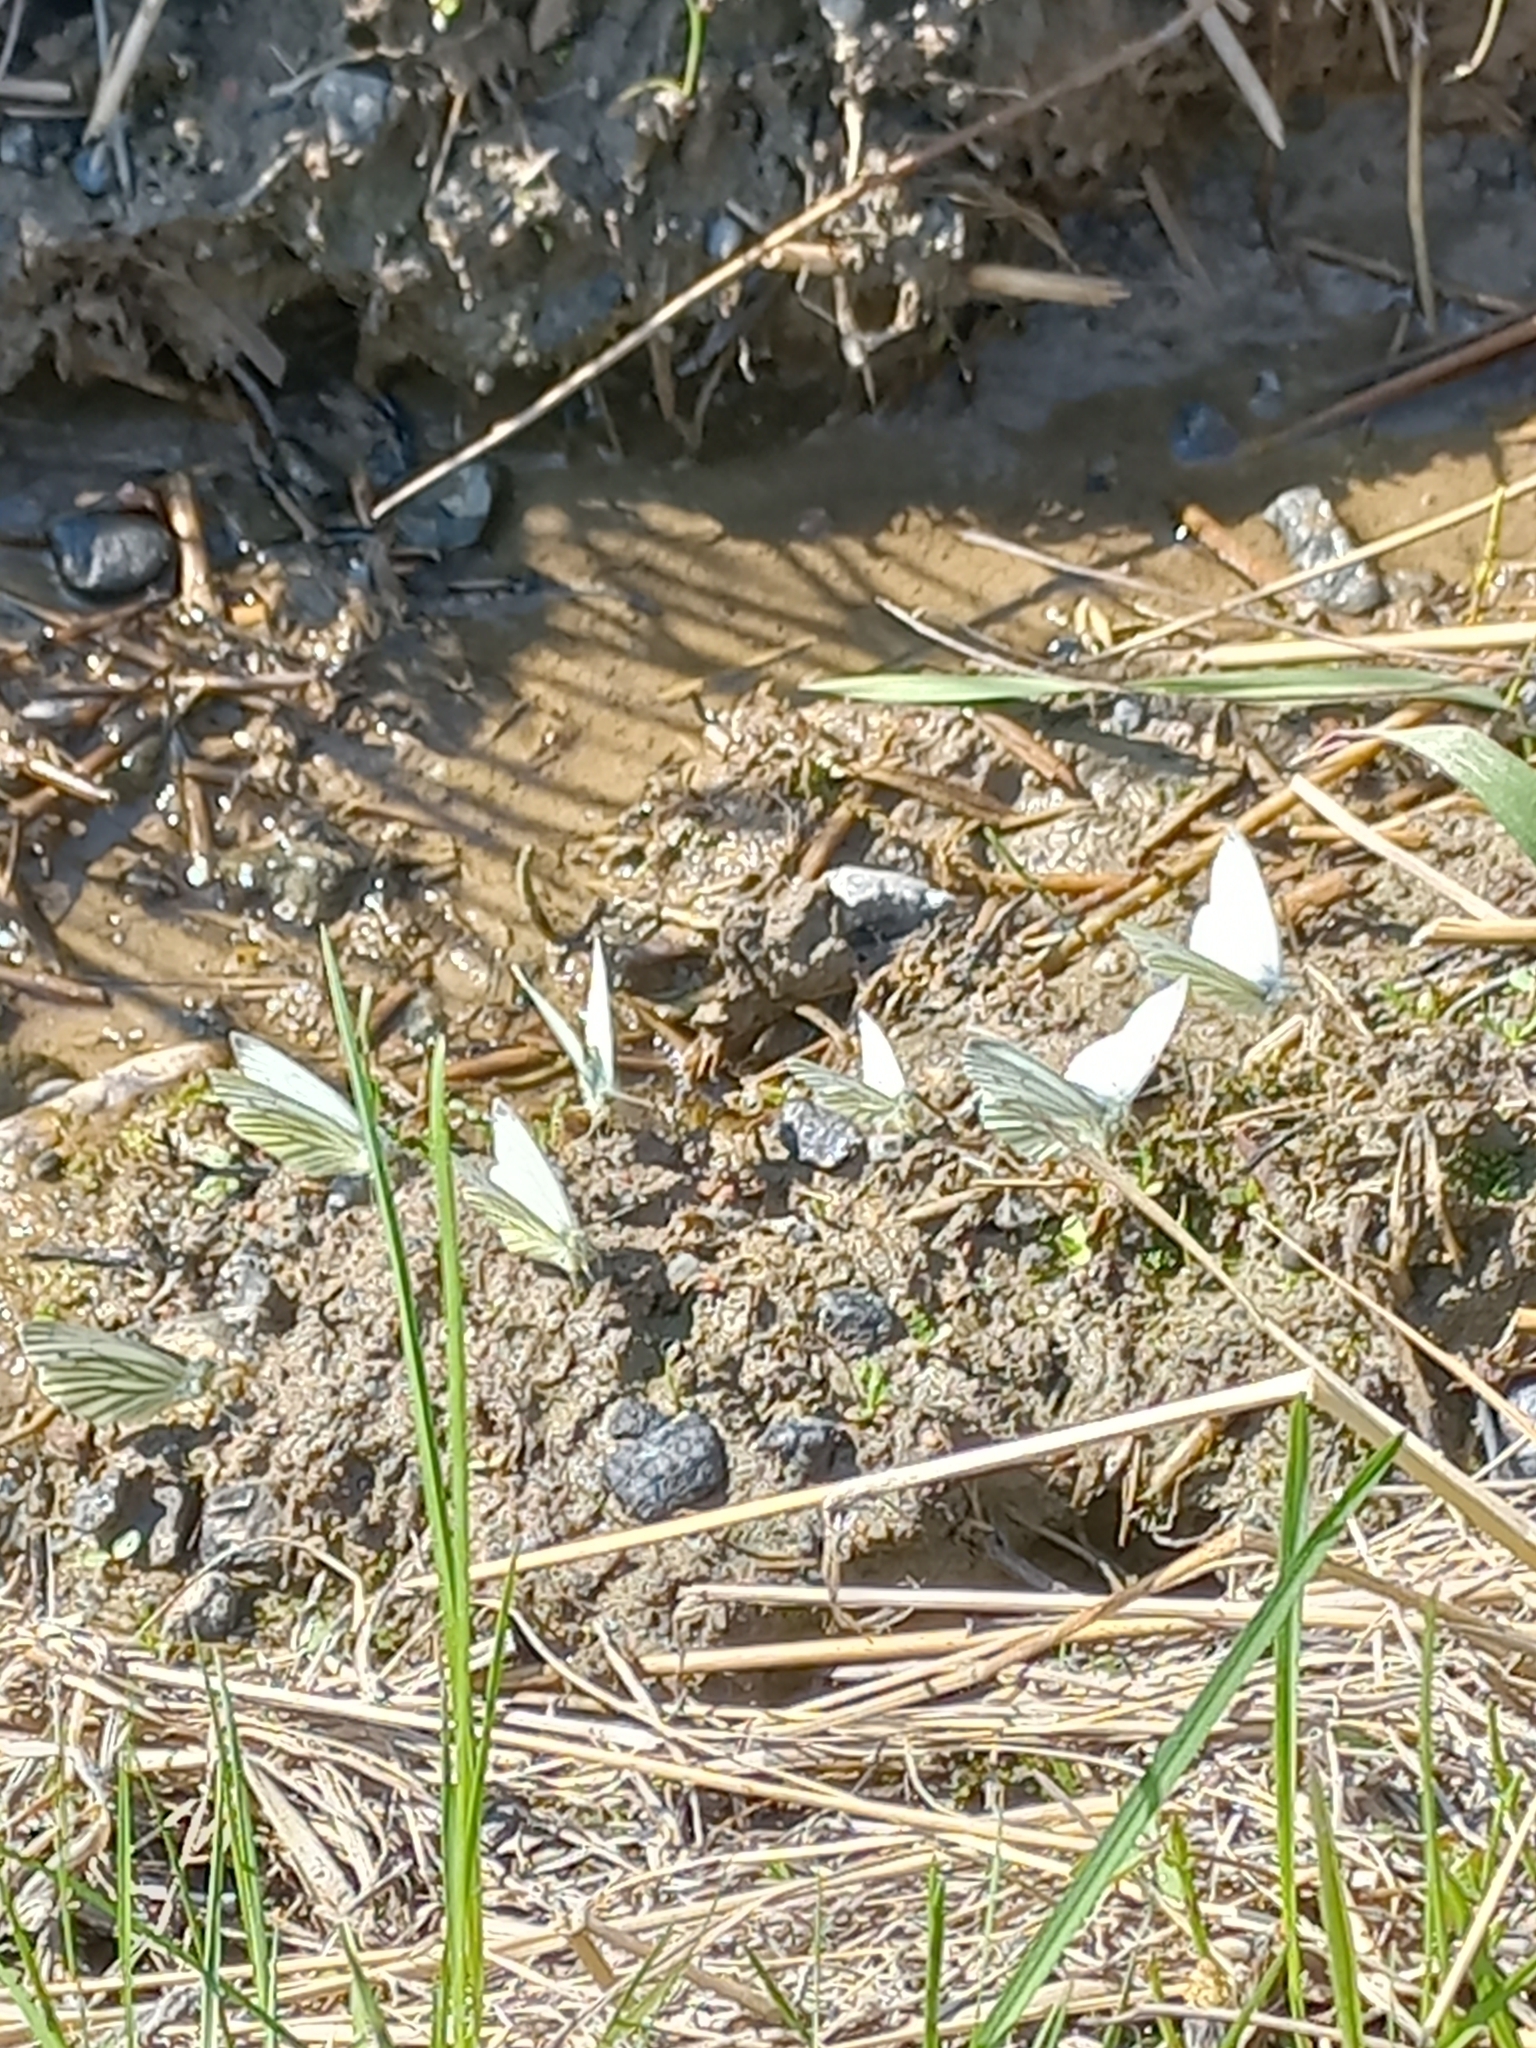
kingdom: Animalia
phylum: Arthropoda
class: Insecta
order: Lepidoptera
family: Pieridae
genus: Pieris
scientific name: Pieris napi
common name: Green-veined white
